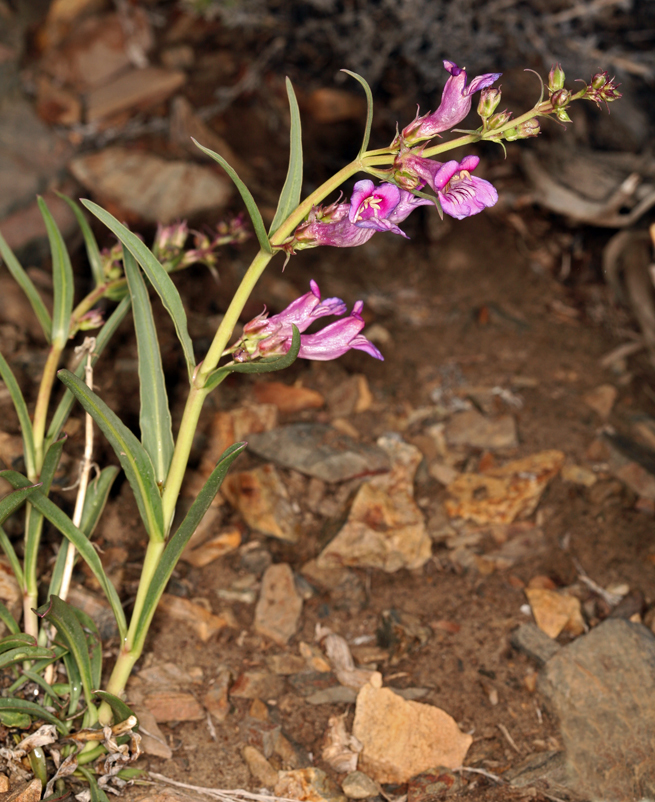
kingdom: Plantae
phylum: Tracheophyta
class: Magnoliopsida
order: Lamiales
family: Plantaginaceae
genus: Penstemon
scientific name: Penstemon speciosus
